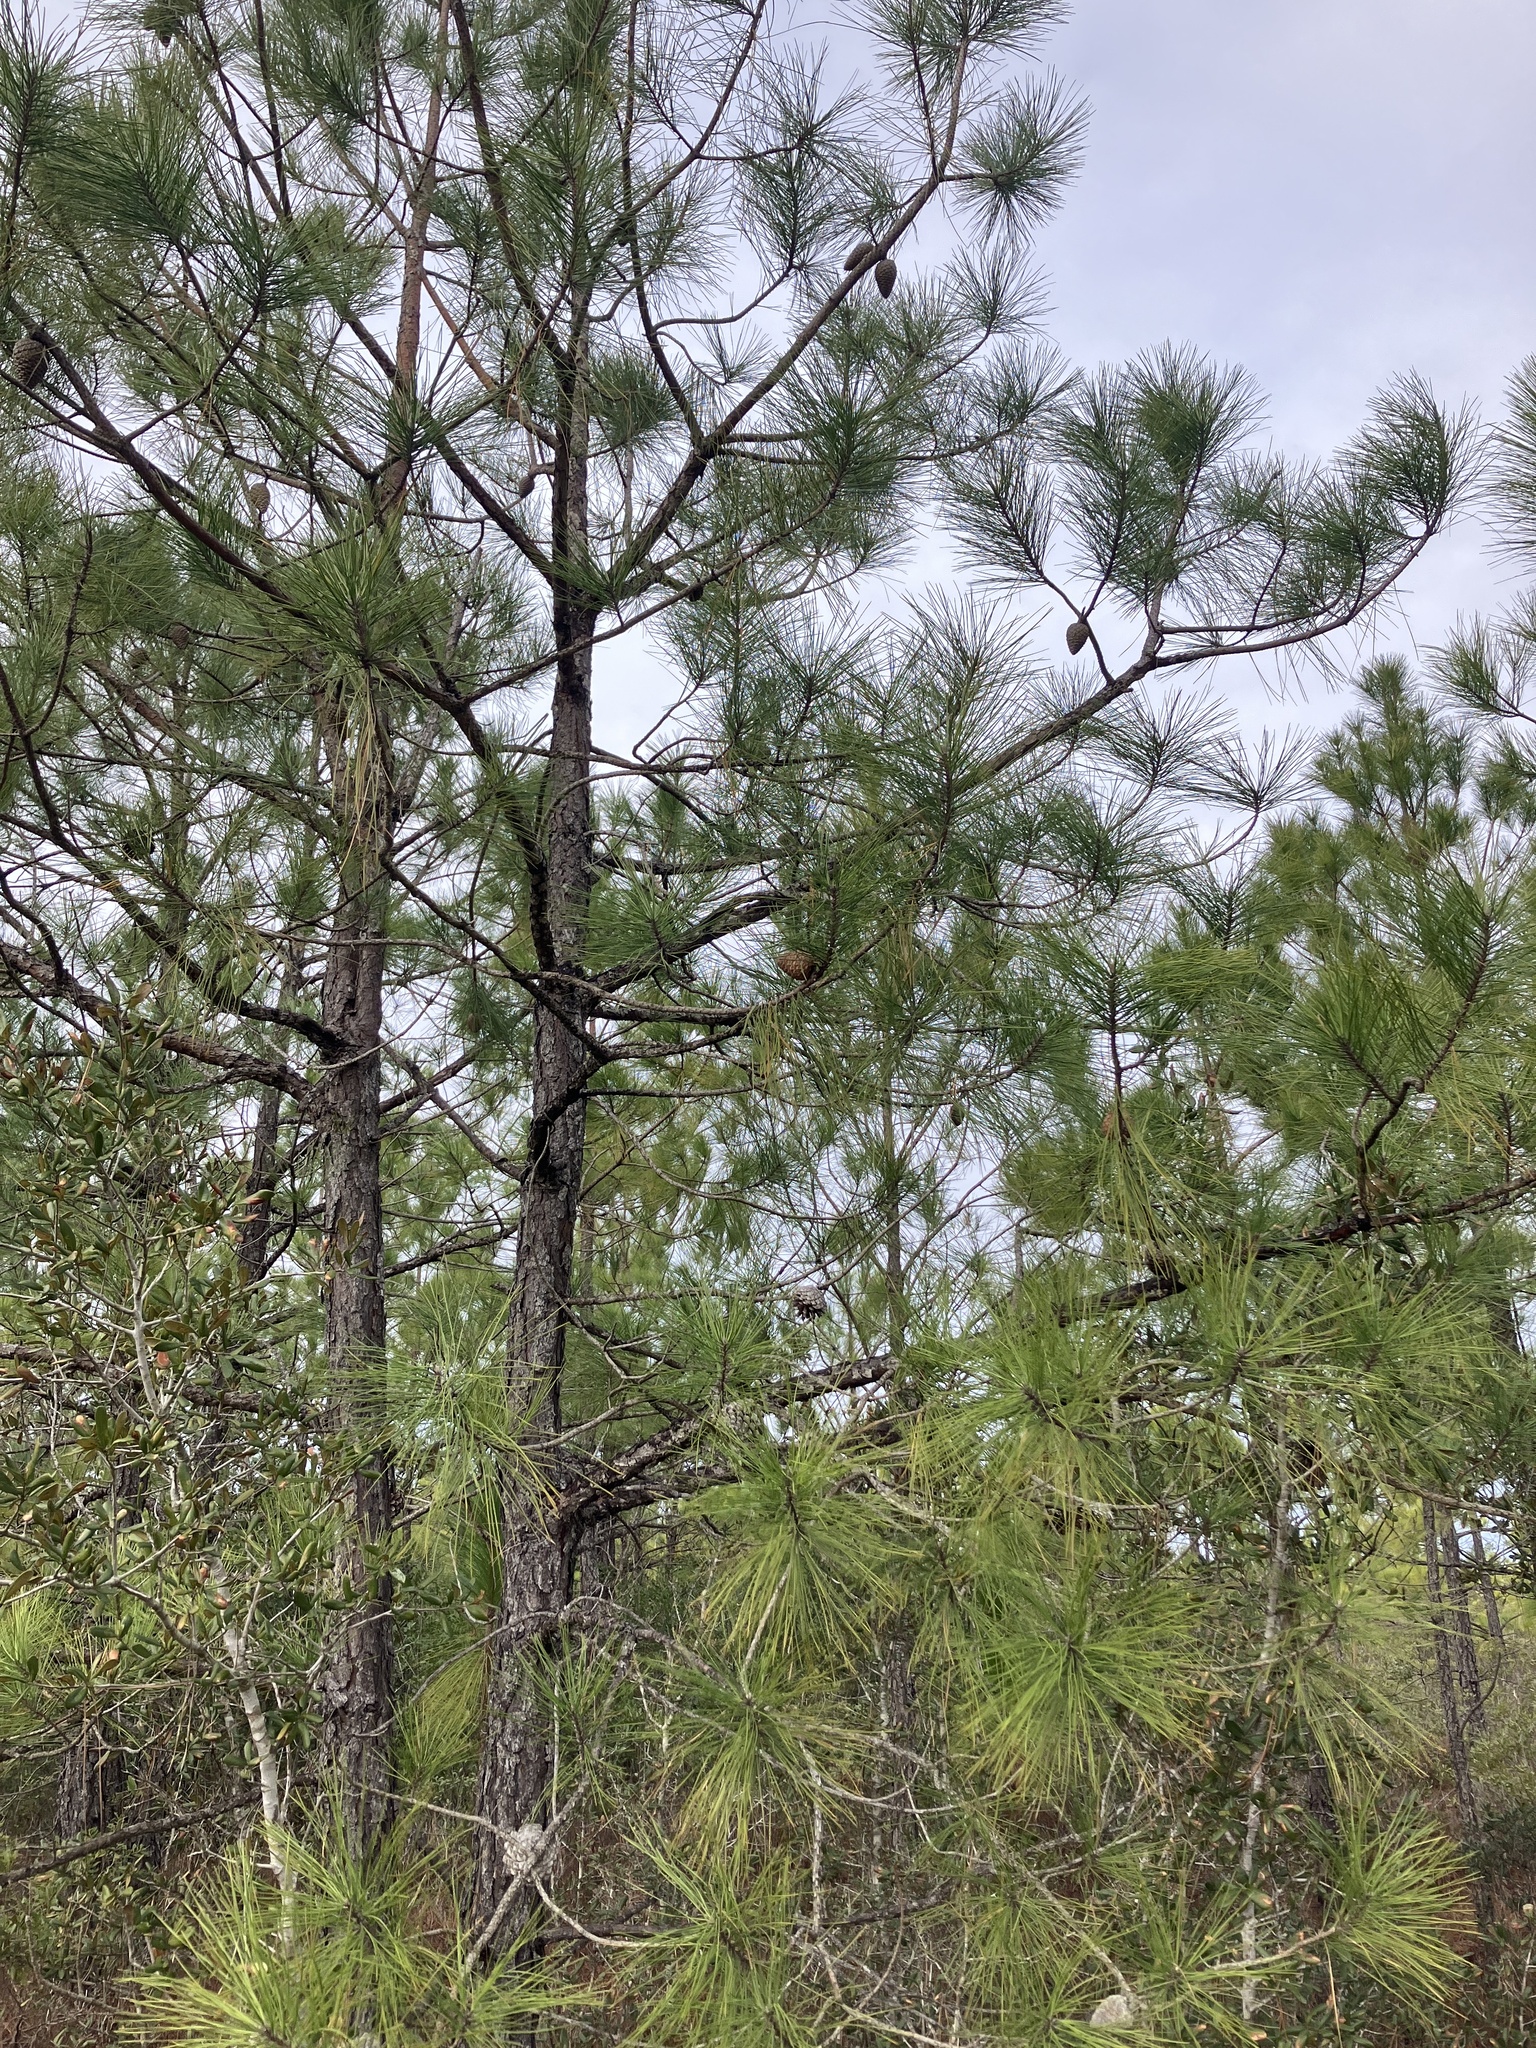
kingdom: Plantae
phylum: Tracheophyta
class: Pinopsida
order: Pinales
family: Pinaceae
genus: Pinus
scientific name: Pinus serotina
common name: Marsh pine
